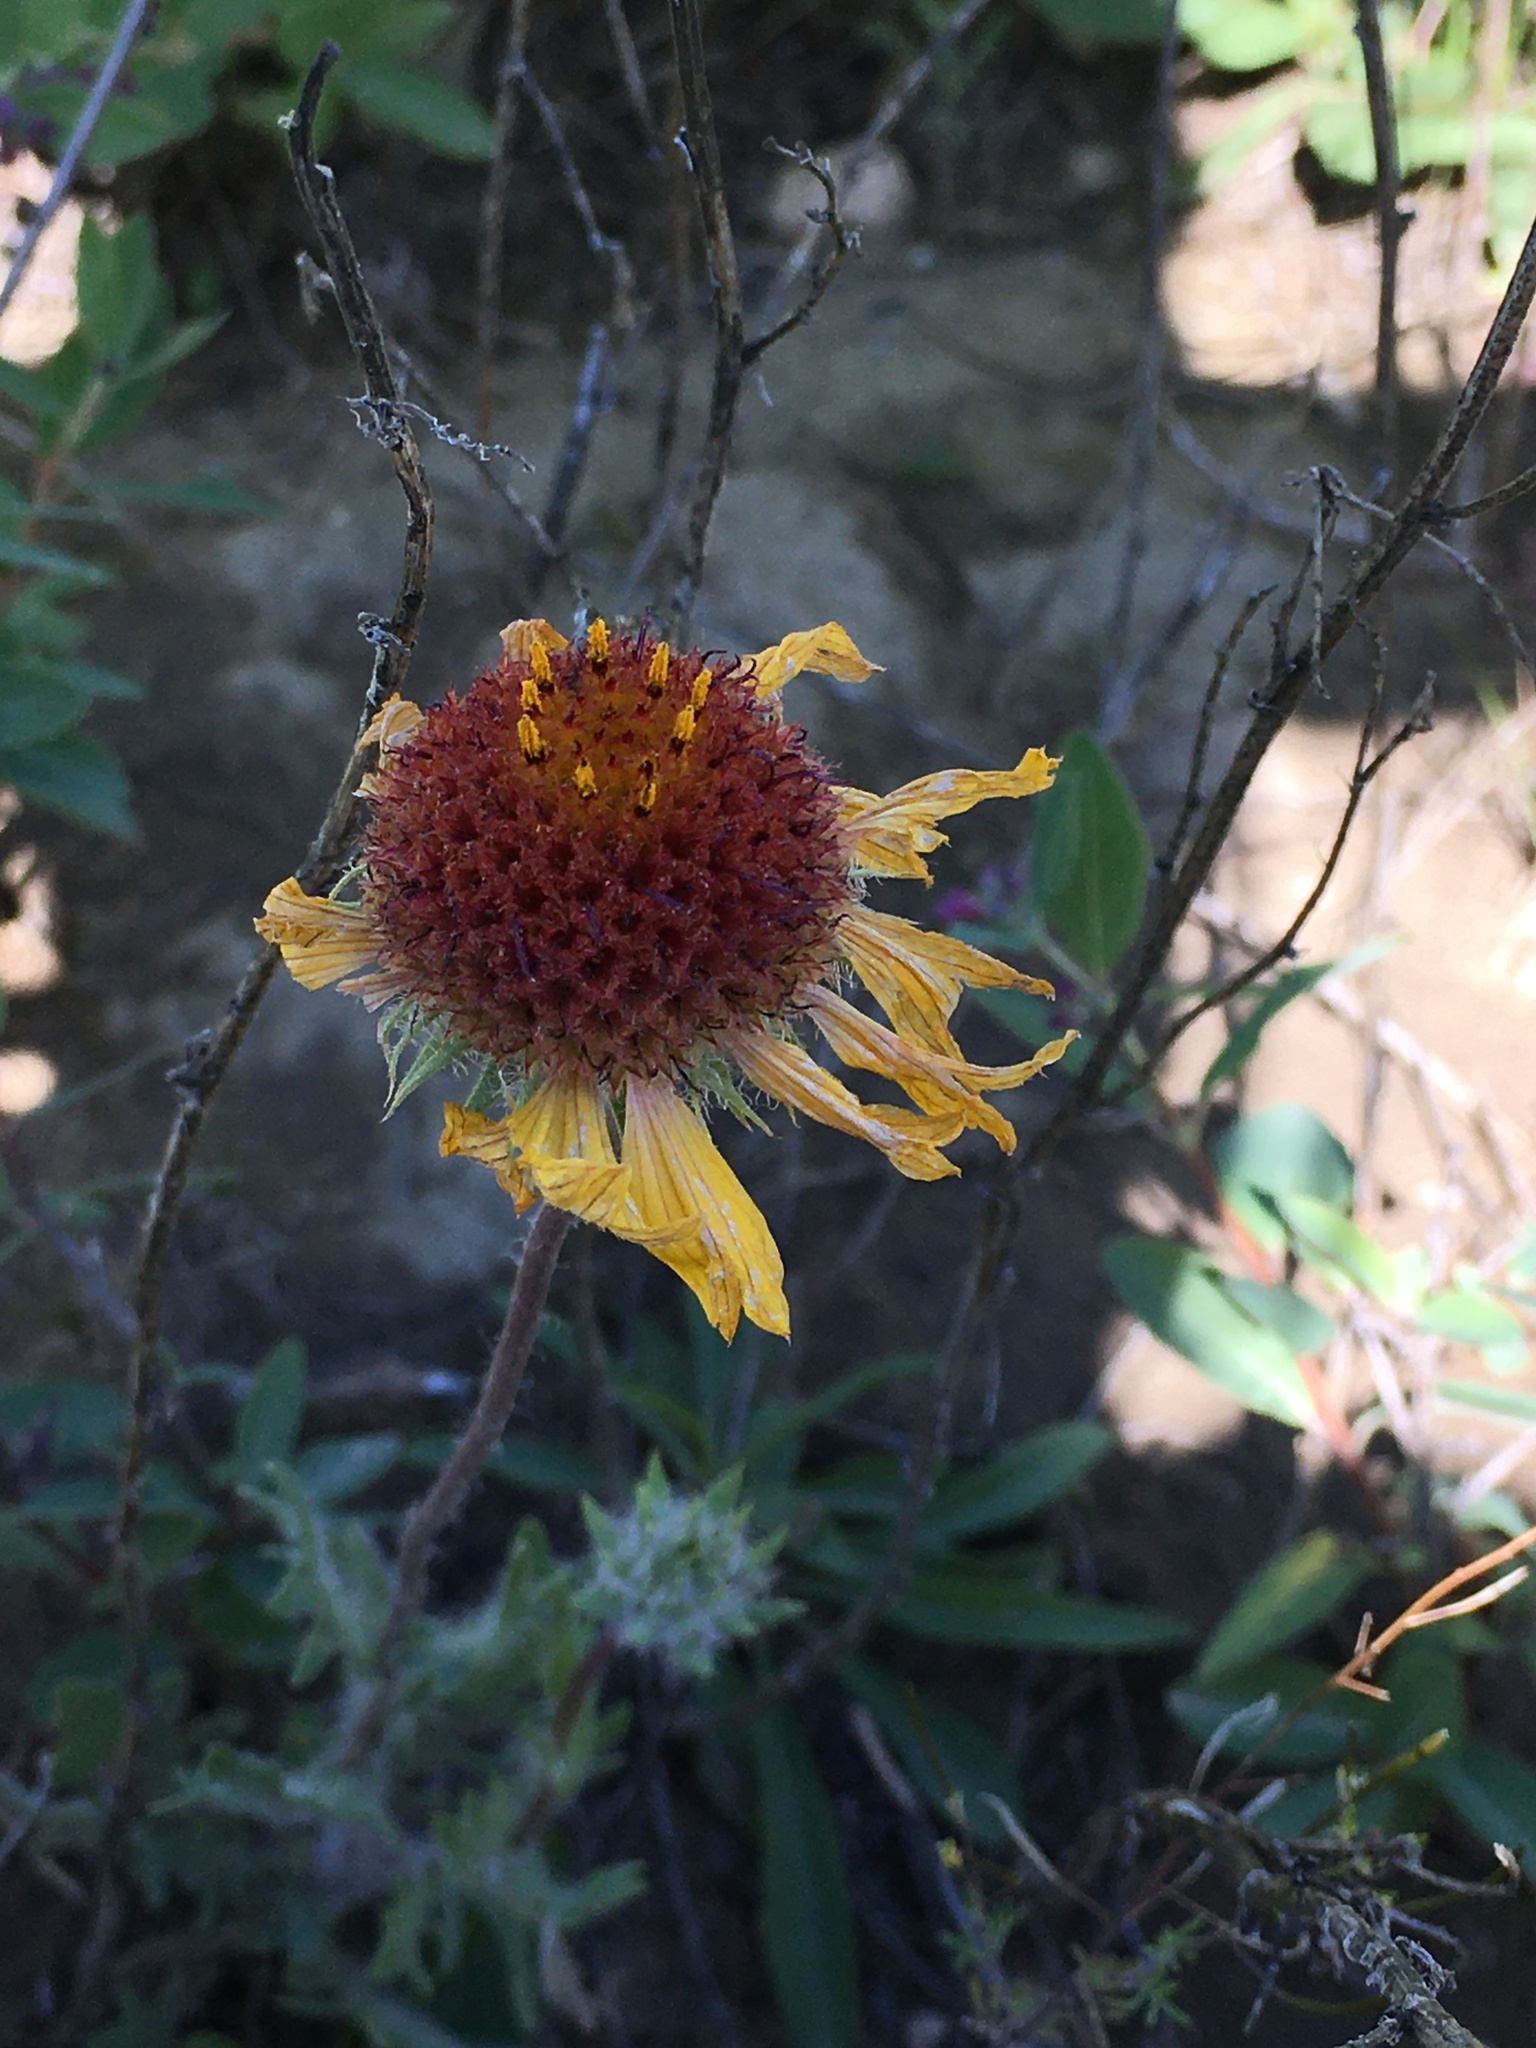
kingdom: Plantae
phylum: Tracheophyta
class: Magnoliopsida
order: Asterales
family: Asteraceae
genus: Gaillardia
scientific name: Gaillardia aristata
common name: Blanket-flower
